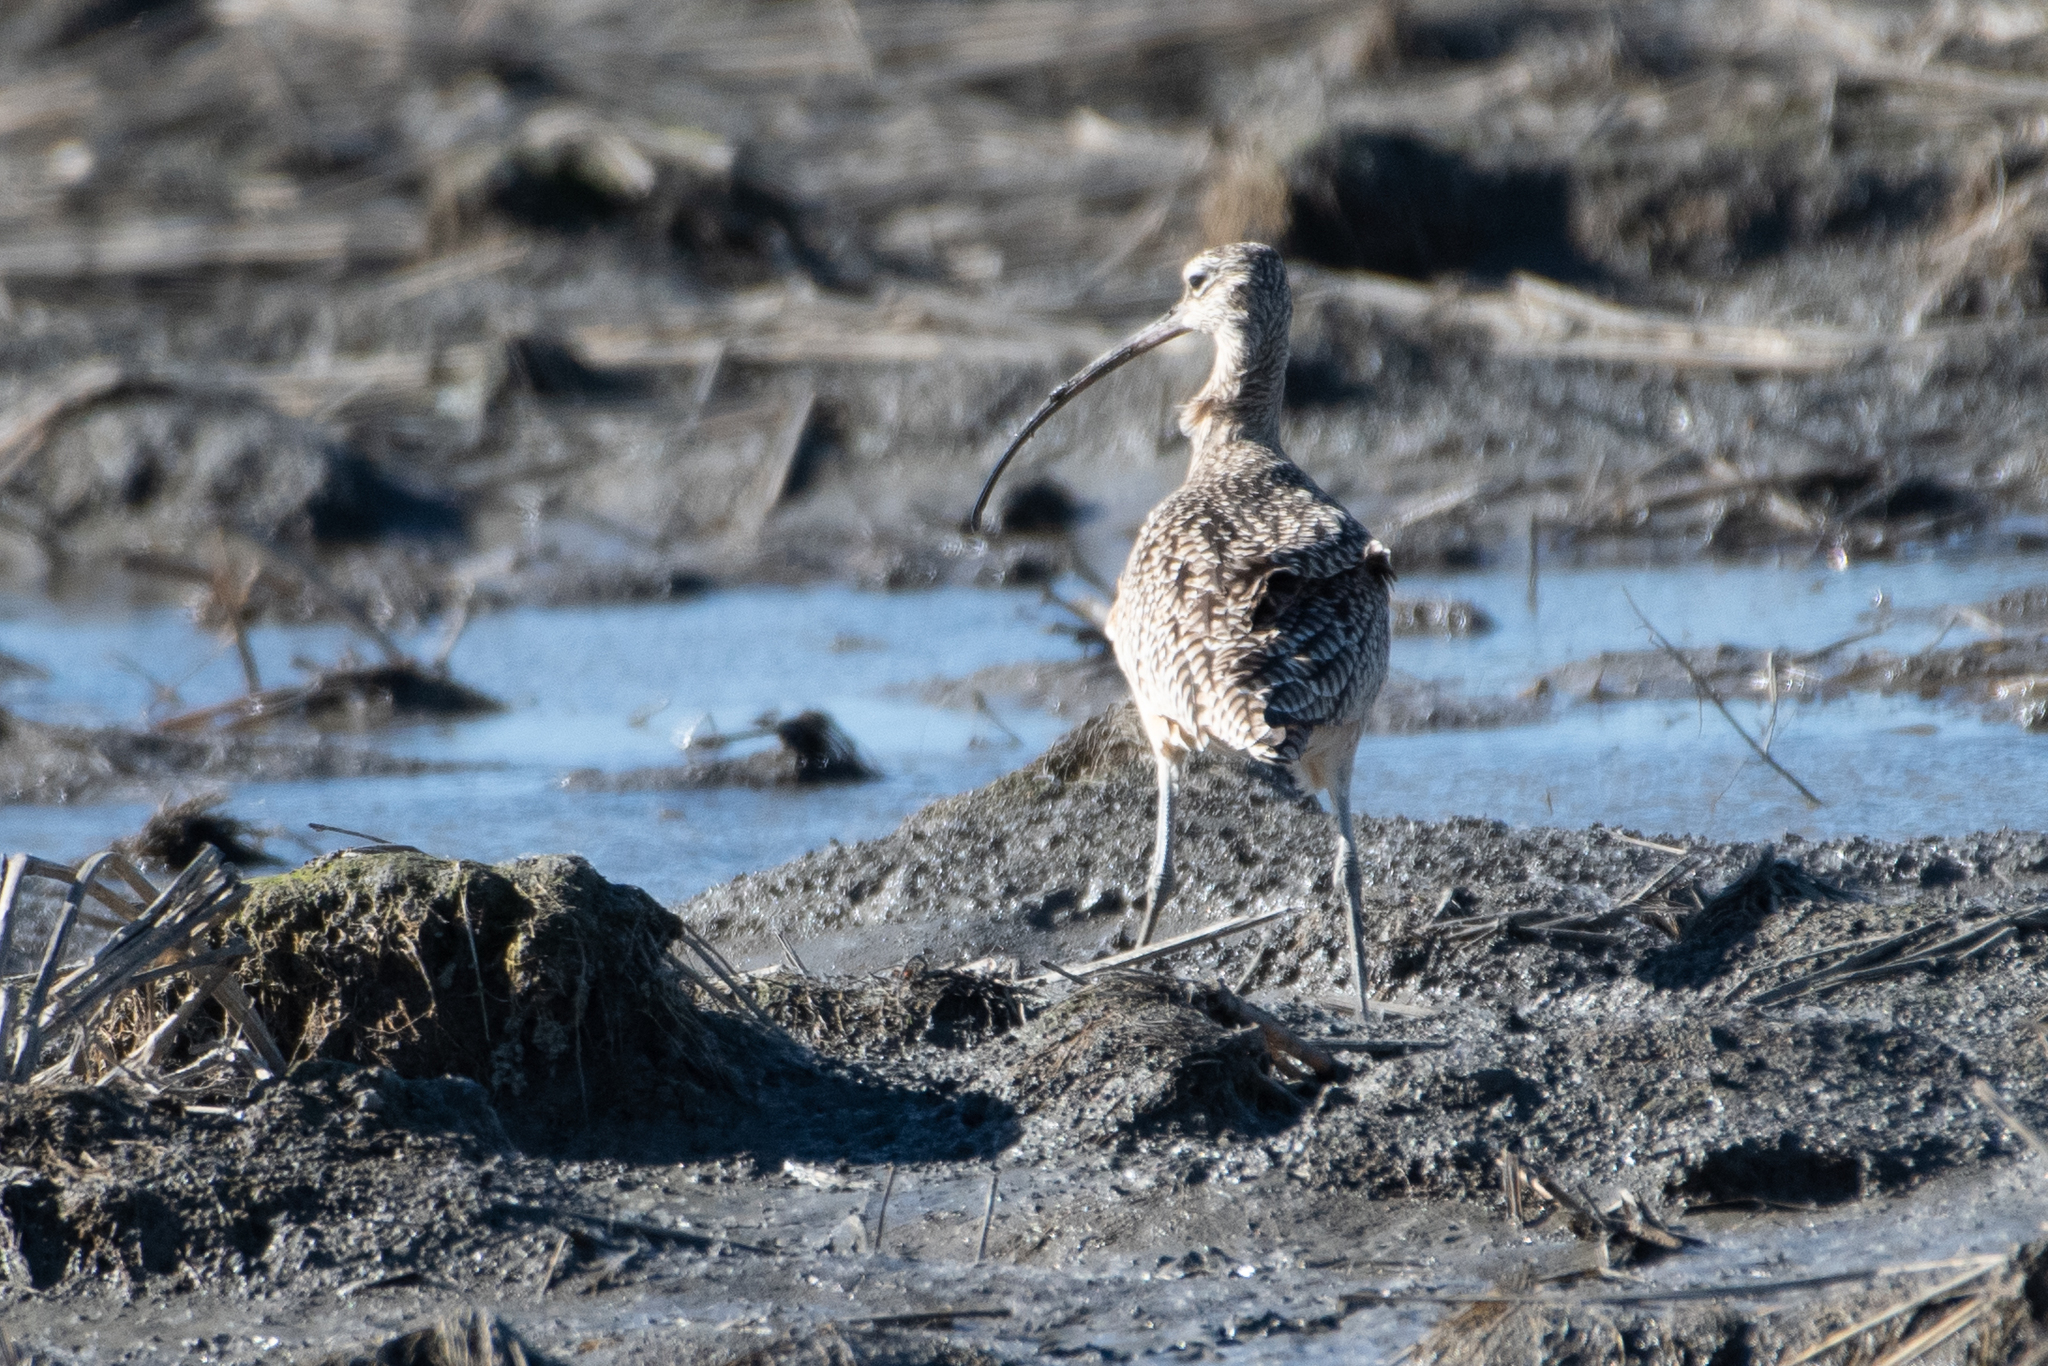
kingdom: Animalia
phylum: Chordata
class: Aves
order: Charadriiformes
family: Scolopacidae
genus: Numenius
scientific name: Numenius americanus
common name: Long-billed curlew
